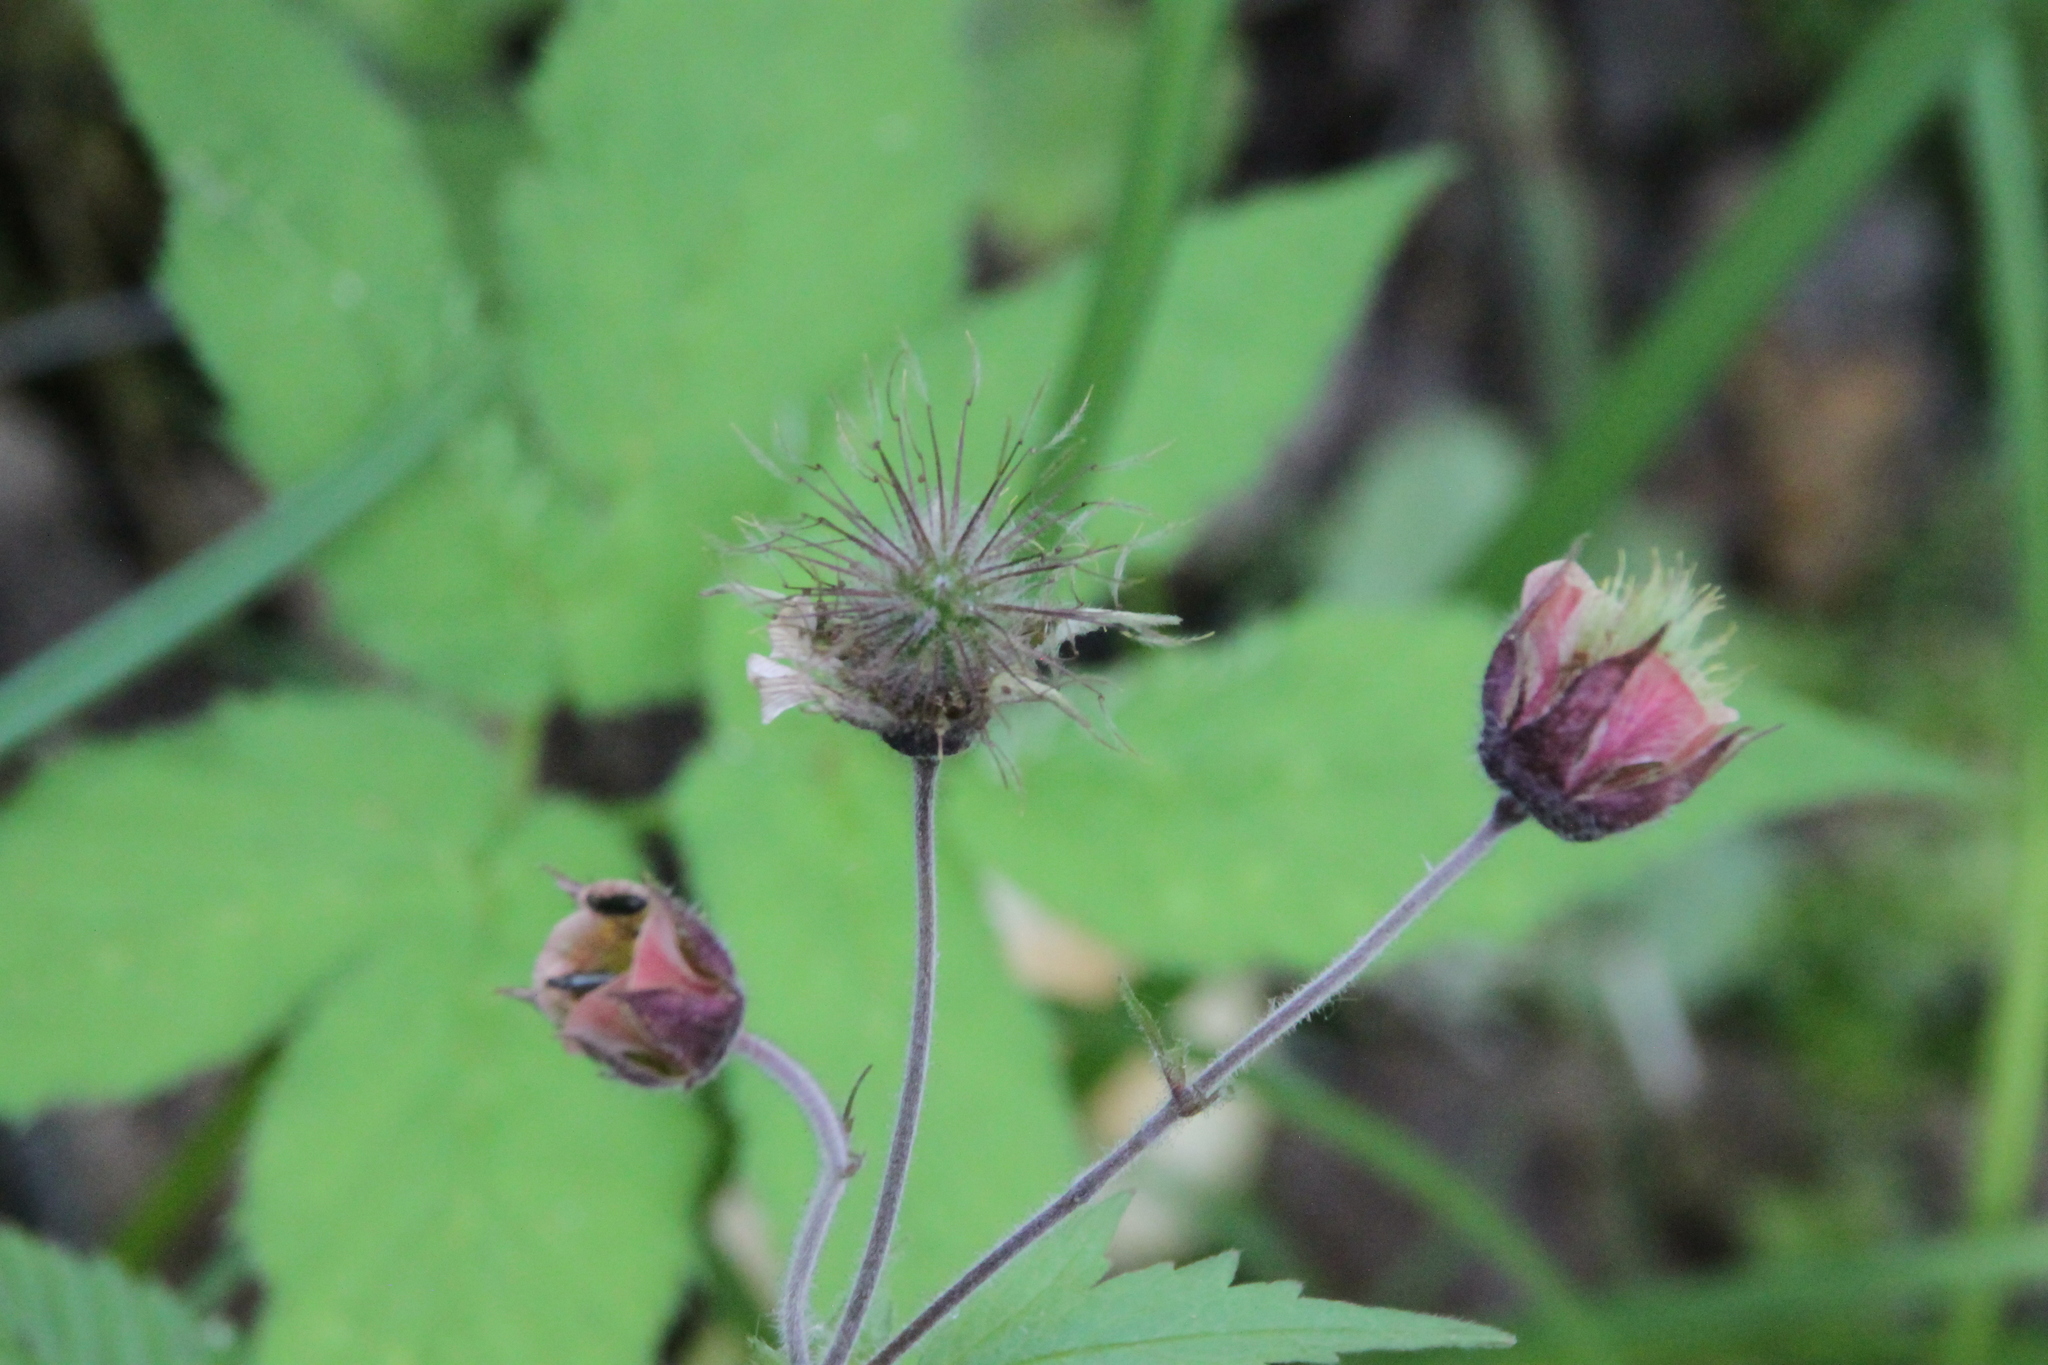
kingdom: Plantae
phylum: Tracheophyta
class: Magnoliopsida
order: Rosales
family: Rosaceae
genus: Geum
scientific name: Geum rivale
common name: Water avens
